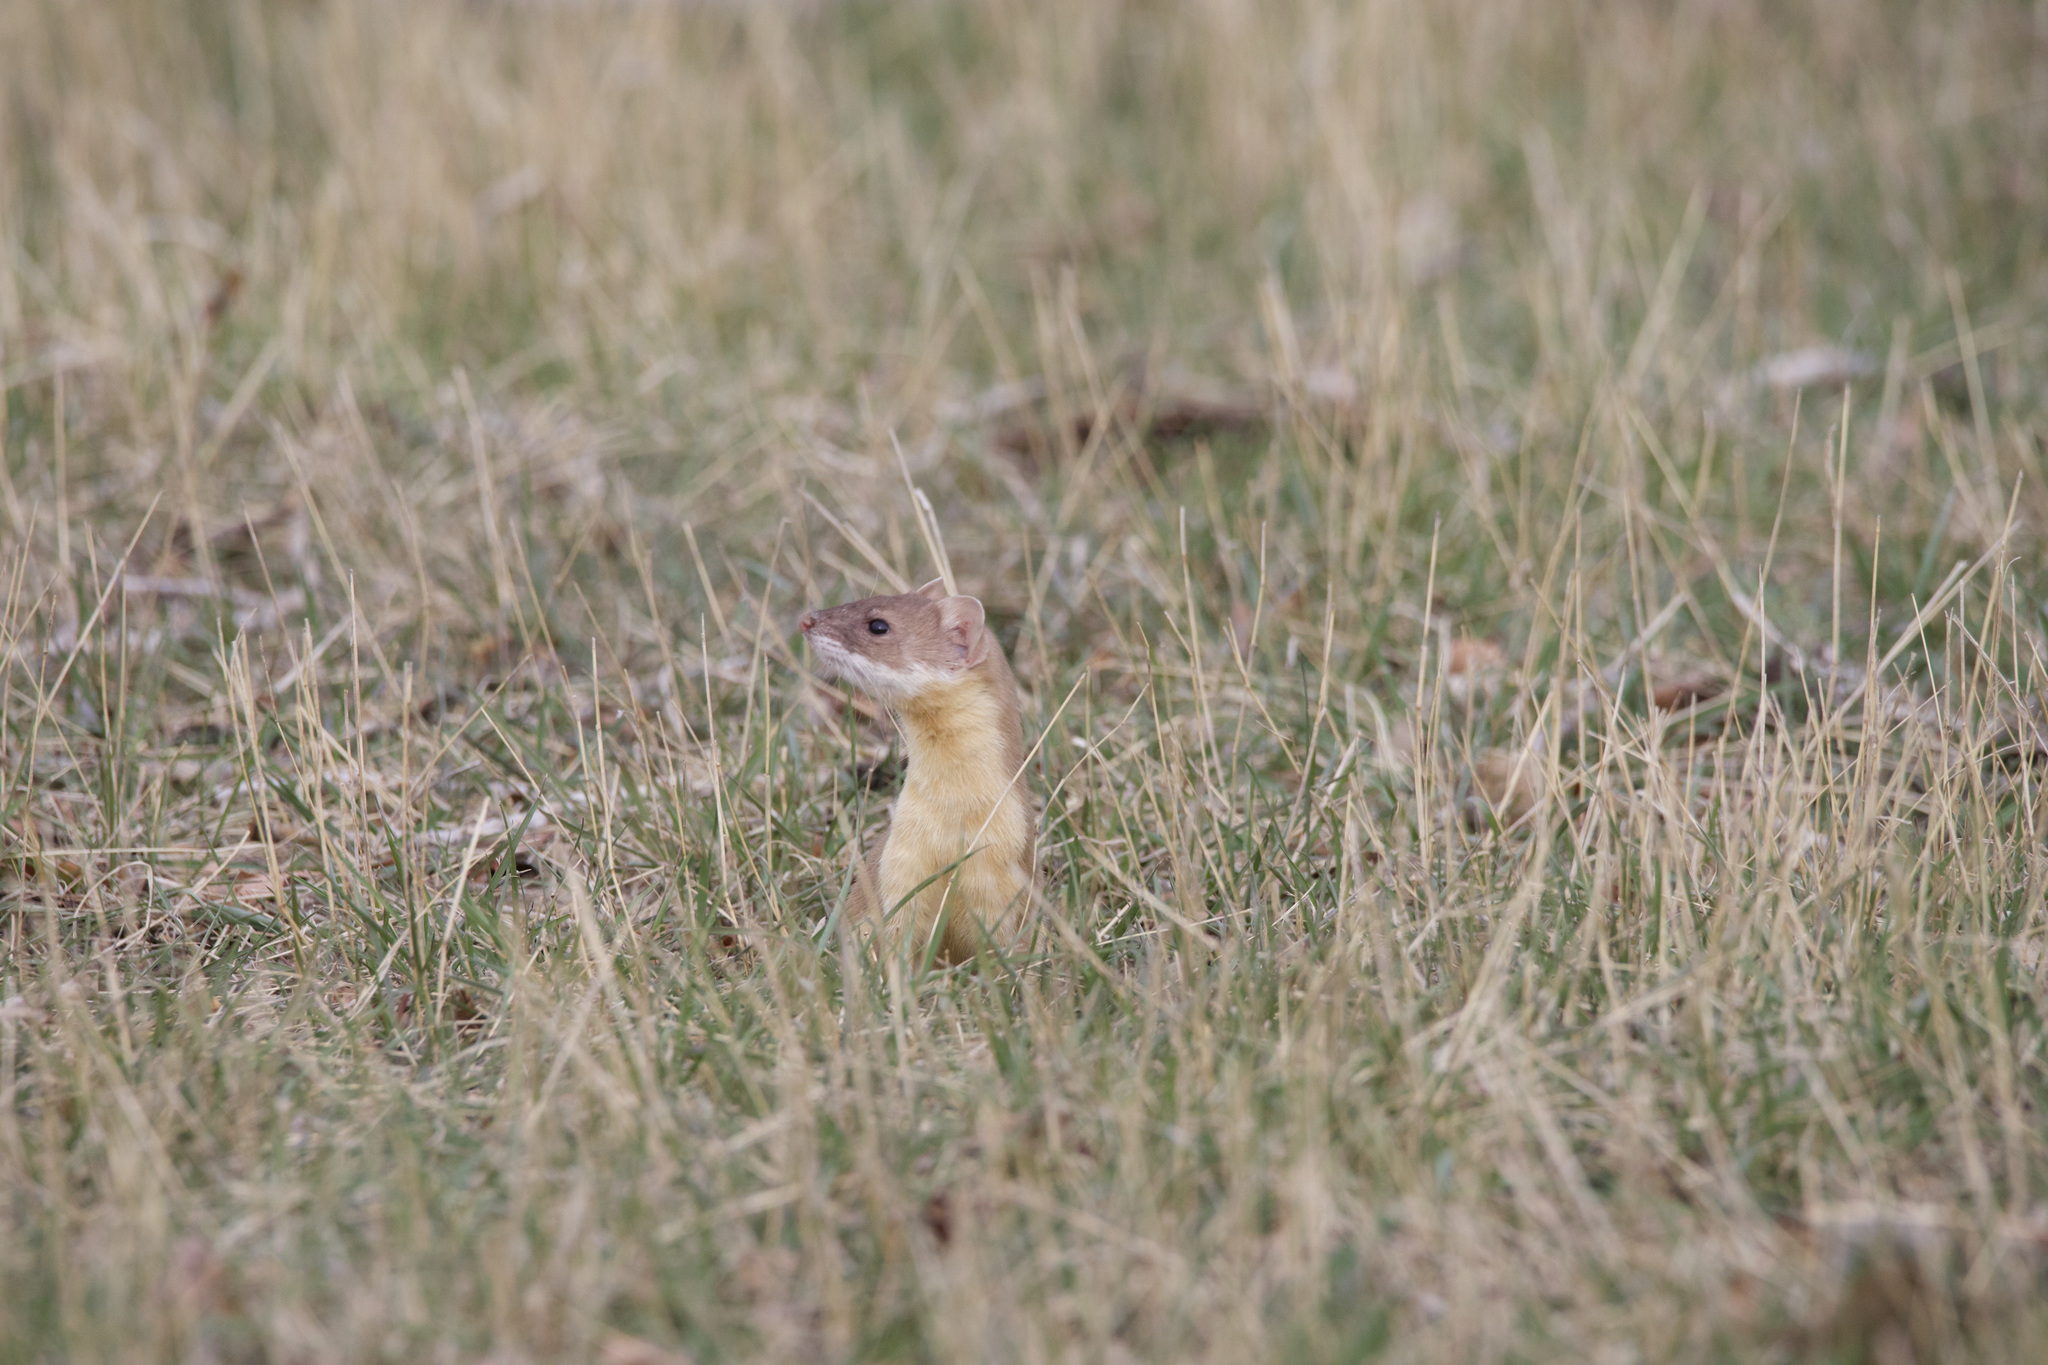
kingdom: Animalia
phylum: Chordata
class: Mammalia
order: Carnivora
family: Mustelidae
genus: Mustela
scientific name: Mustela
